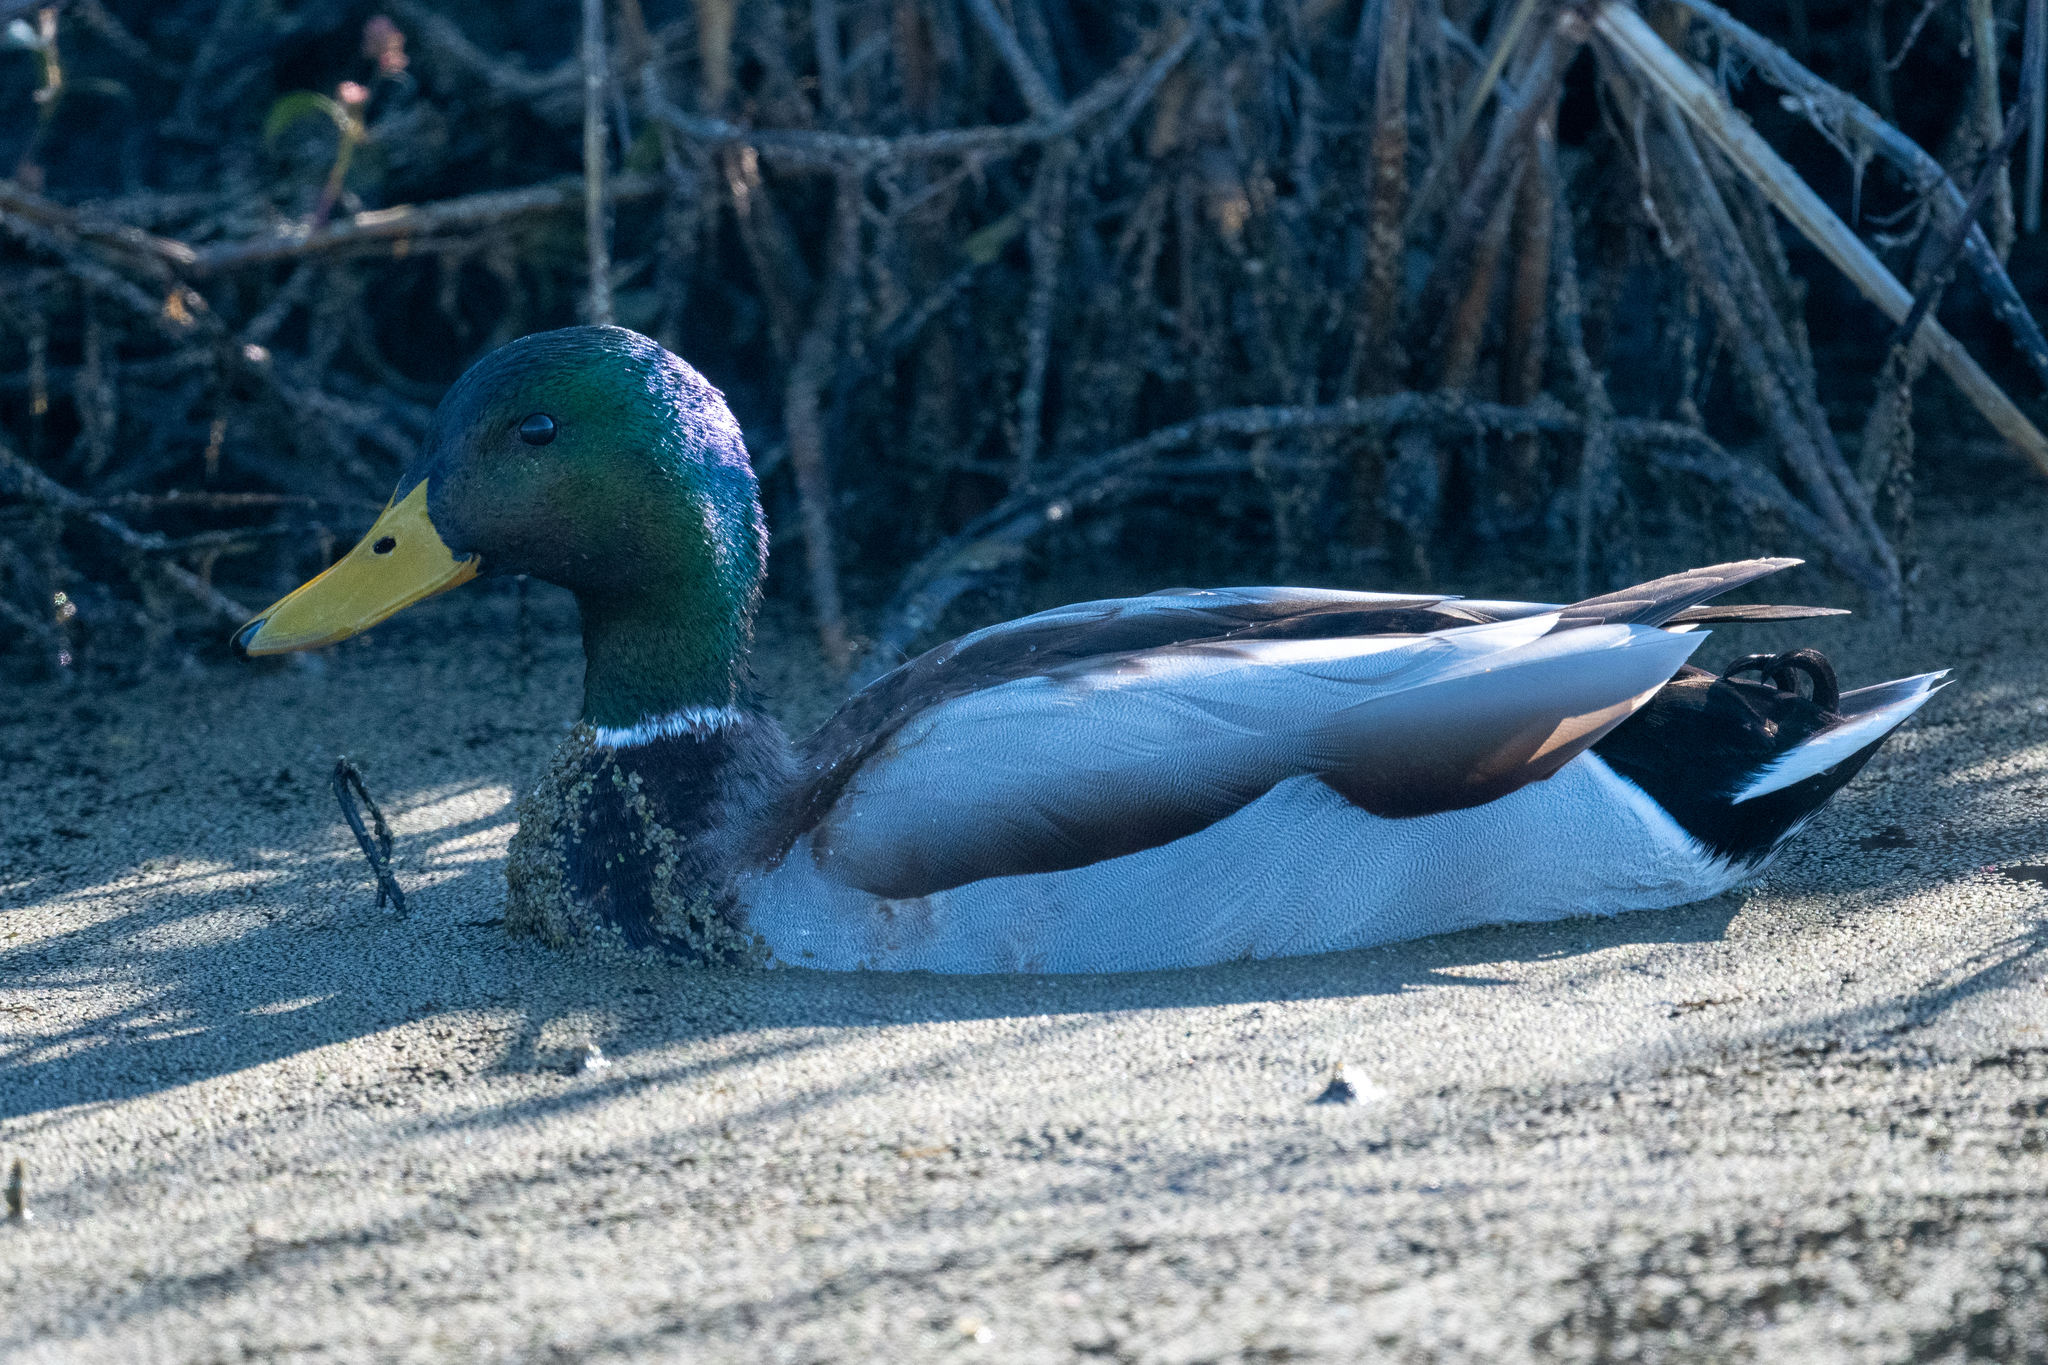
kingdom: Animalia
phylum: Chordata
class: Aves
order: Anseriformes
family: Anatidae
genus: Anas
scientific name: Anas platyrhynchos
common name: Mallard
